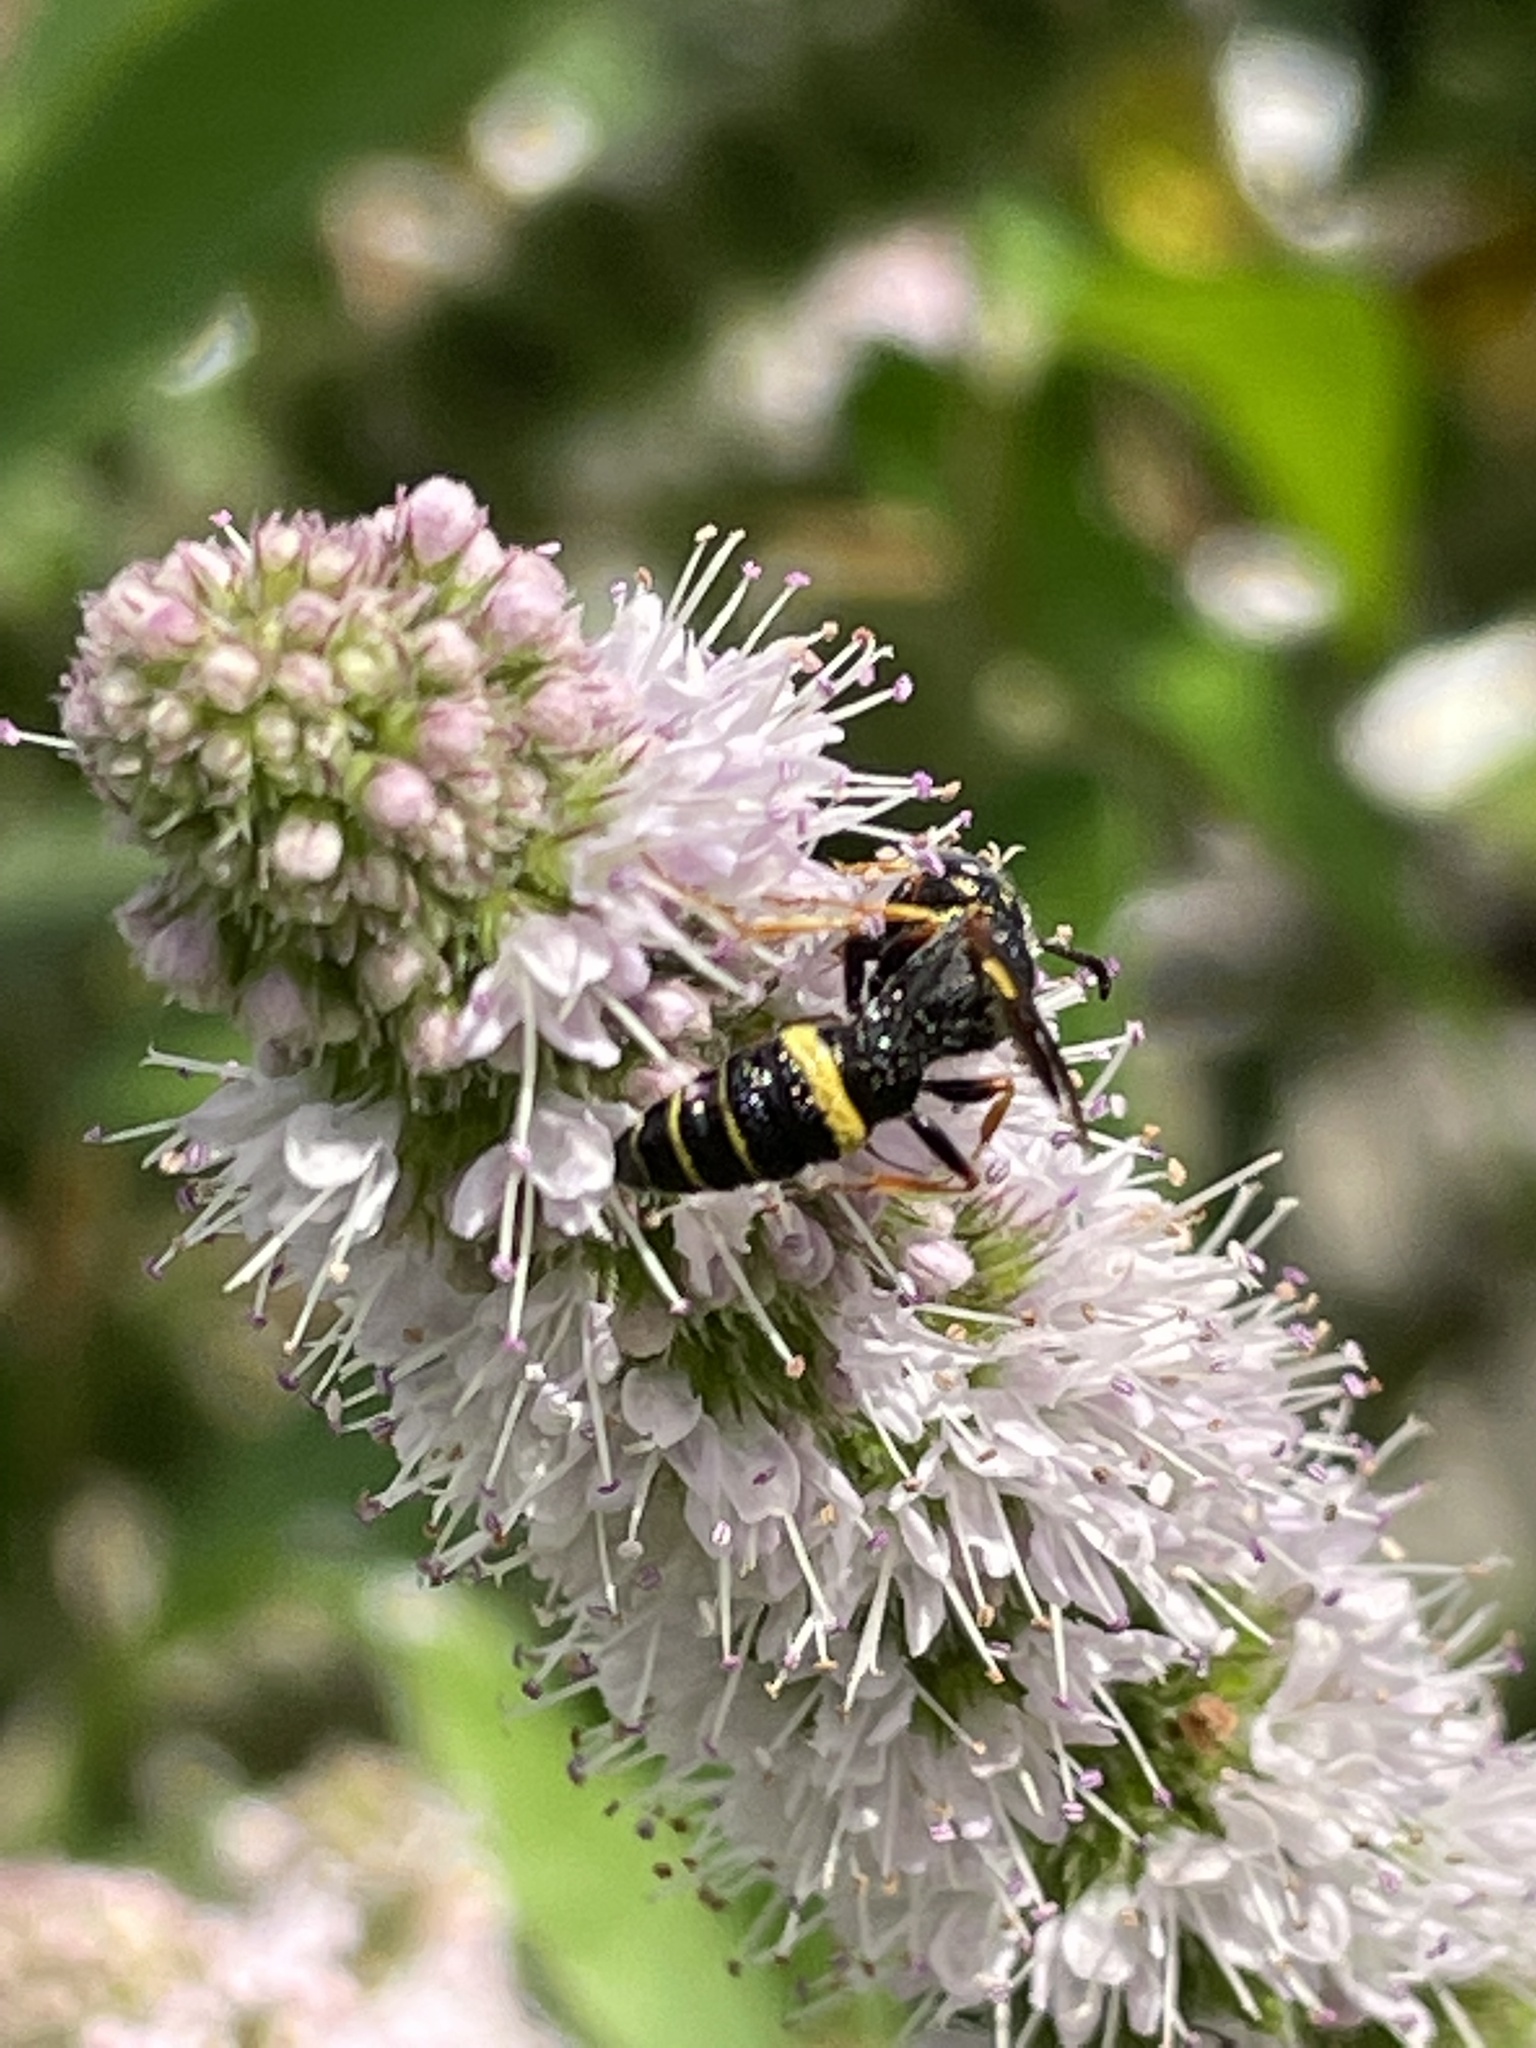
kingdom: Animalia
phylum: Arthropoda
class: Insecta
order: Hymenoptera
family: Crabronidae
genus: Philanthus
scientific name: Philanthus gibbosus
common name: Humped beewolf
